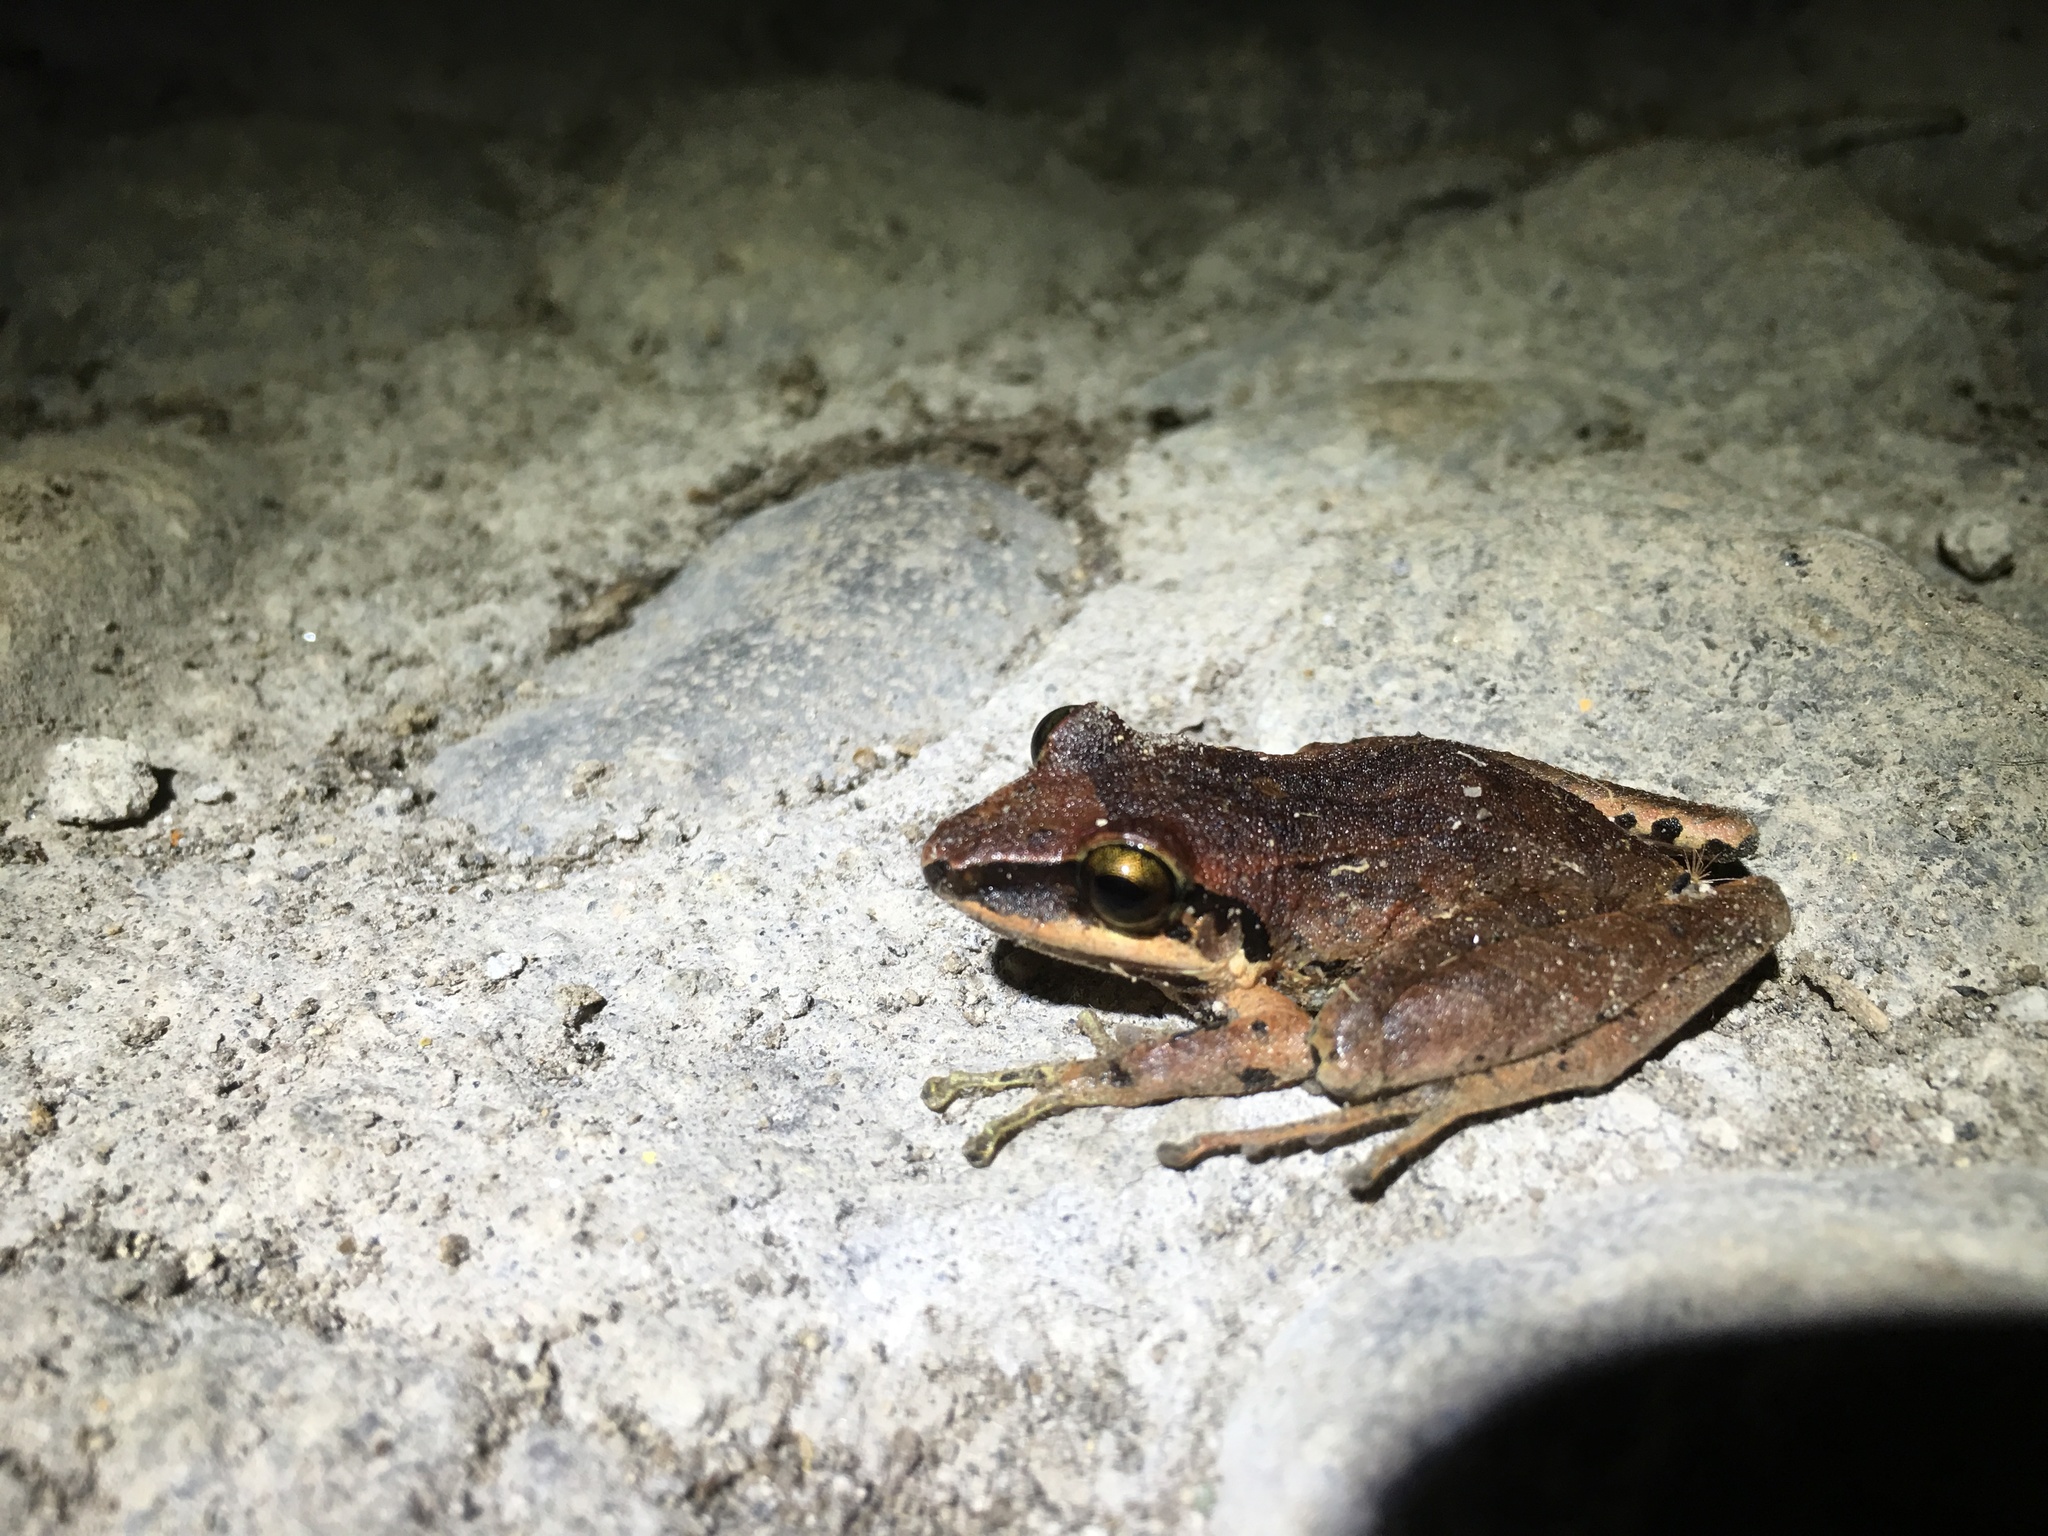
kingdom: Animalia
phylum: Chordata
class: Amphibia
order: Anura
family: Craugastoridae
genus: Pristimantis
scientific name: Pristimantis achatinus
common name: Cachabi robber frog
